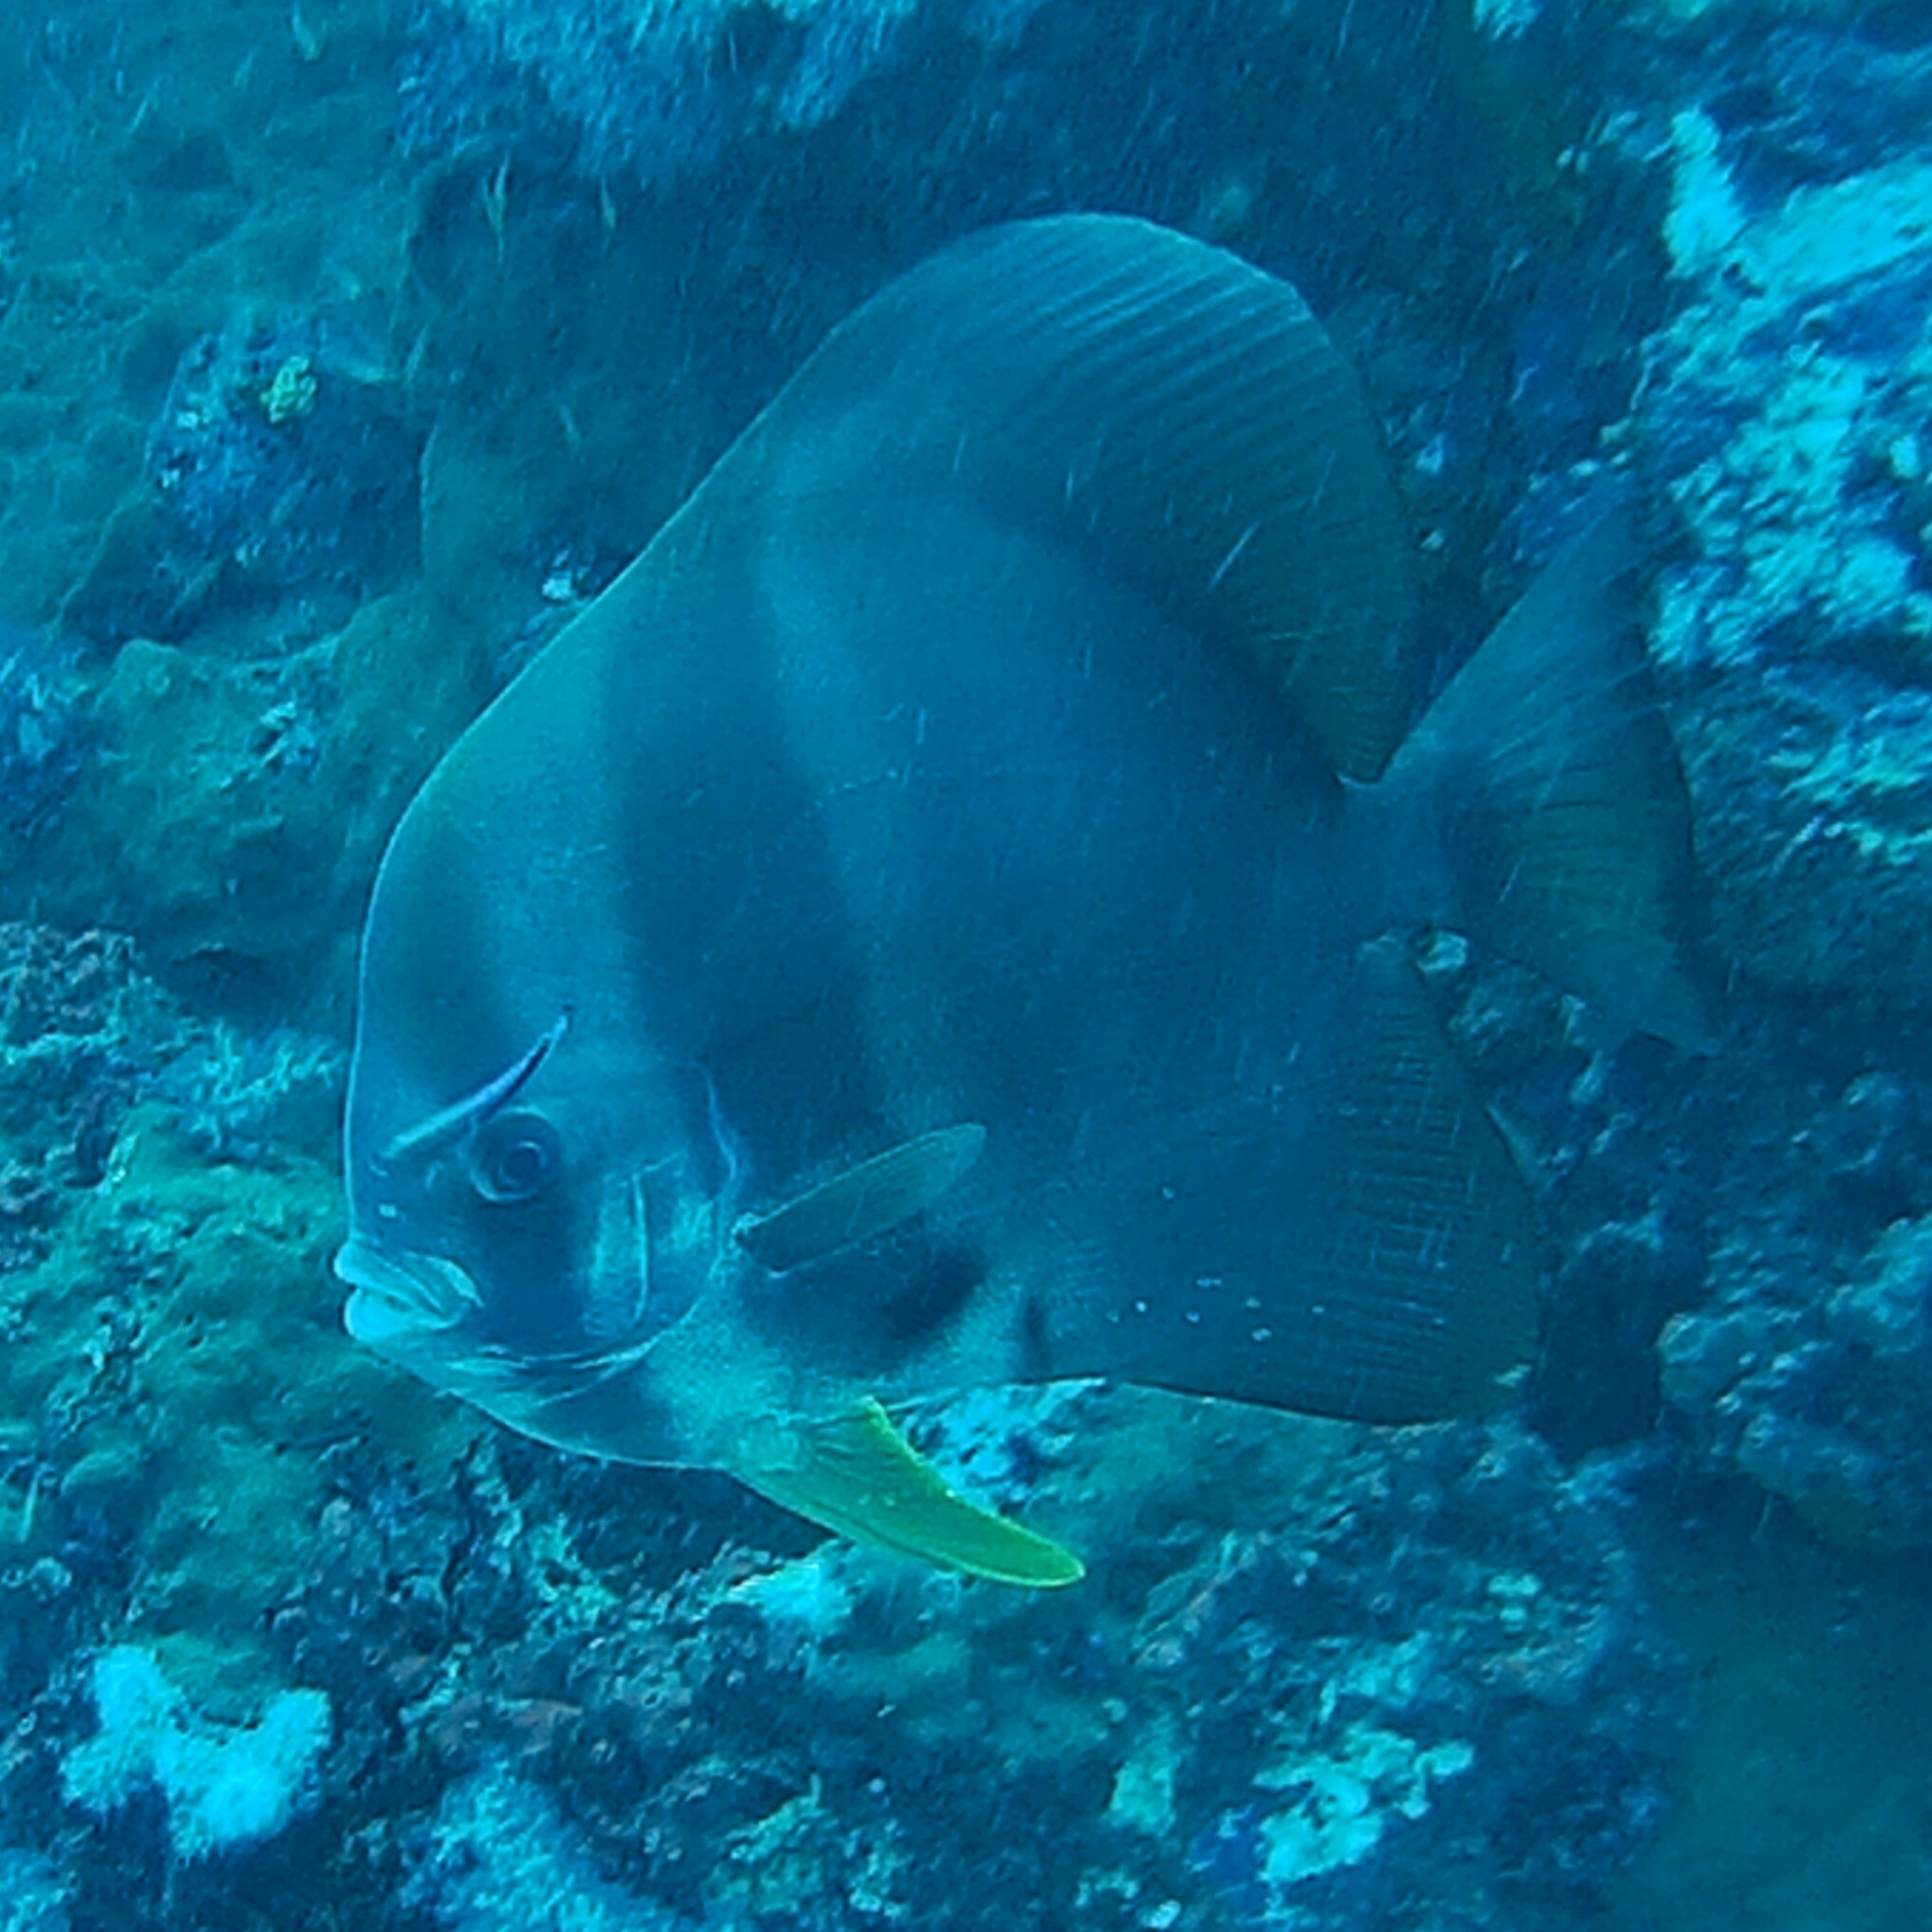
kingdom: Animalia
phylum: Chordata
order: Perciformes
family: Ephippidae
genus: Platax
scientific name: Platax teira
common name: Longfin baitfish
